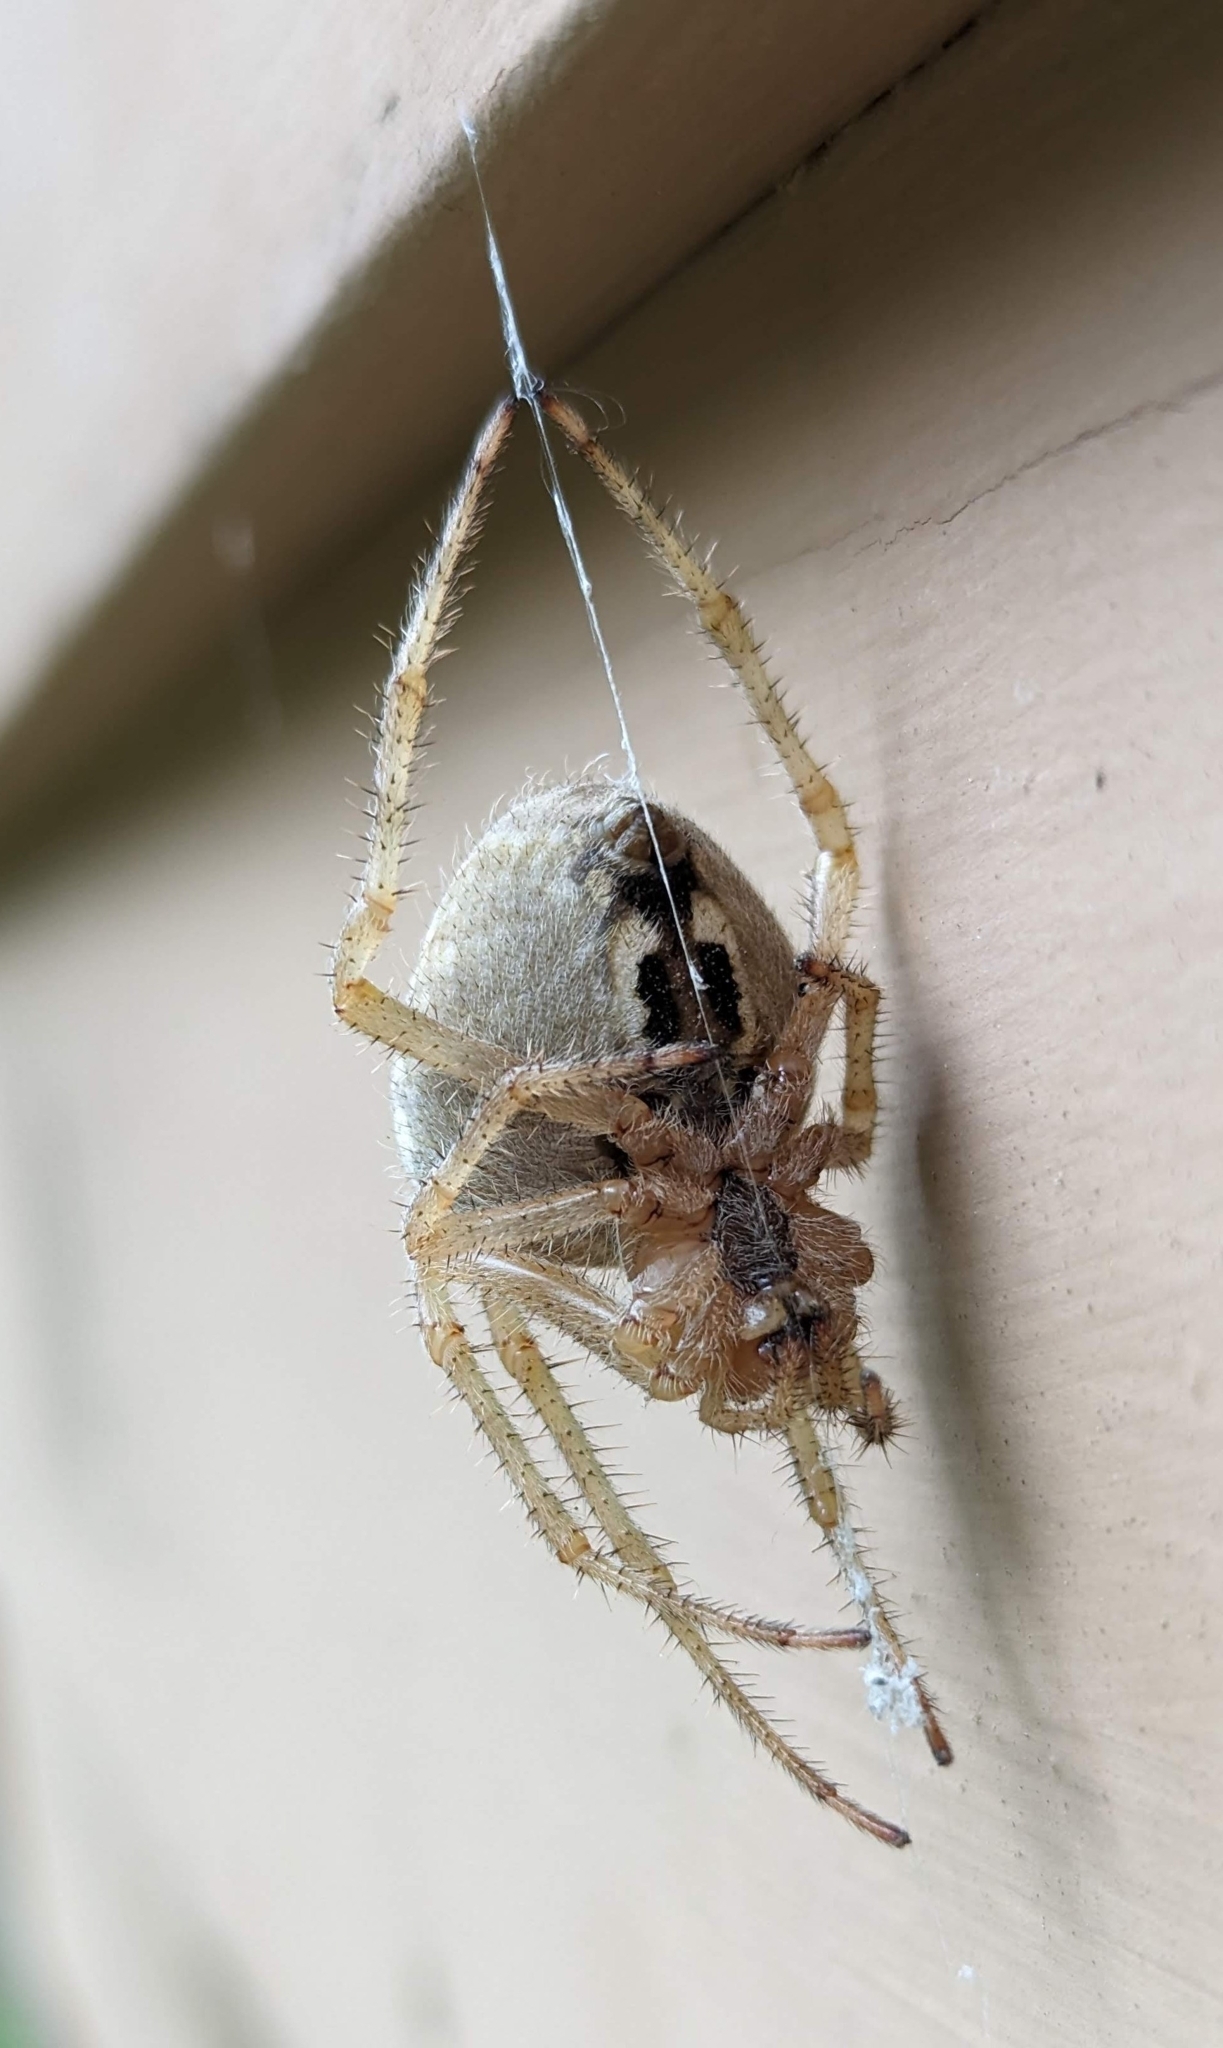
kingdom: Animalia
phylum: Arthropoda
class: Arachnida
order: Araneae
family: Araneidae
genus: Araneus
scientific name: Araneus cavaticus
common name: Barn orbweaver
